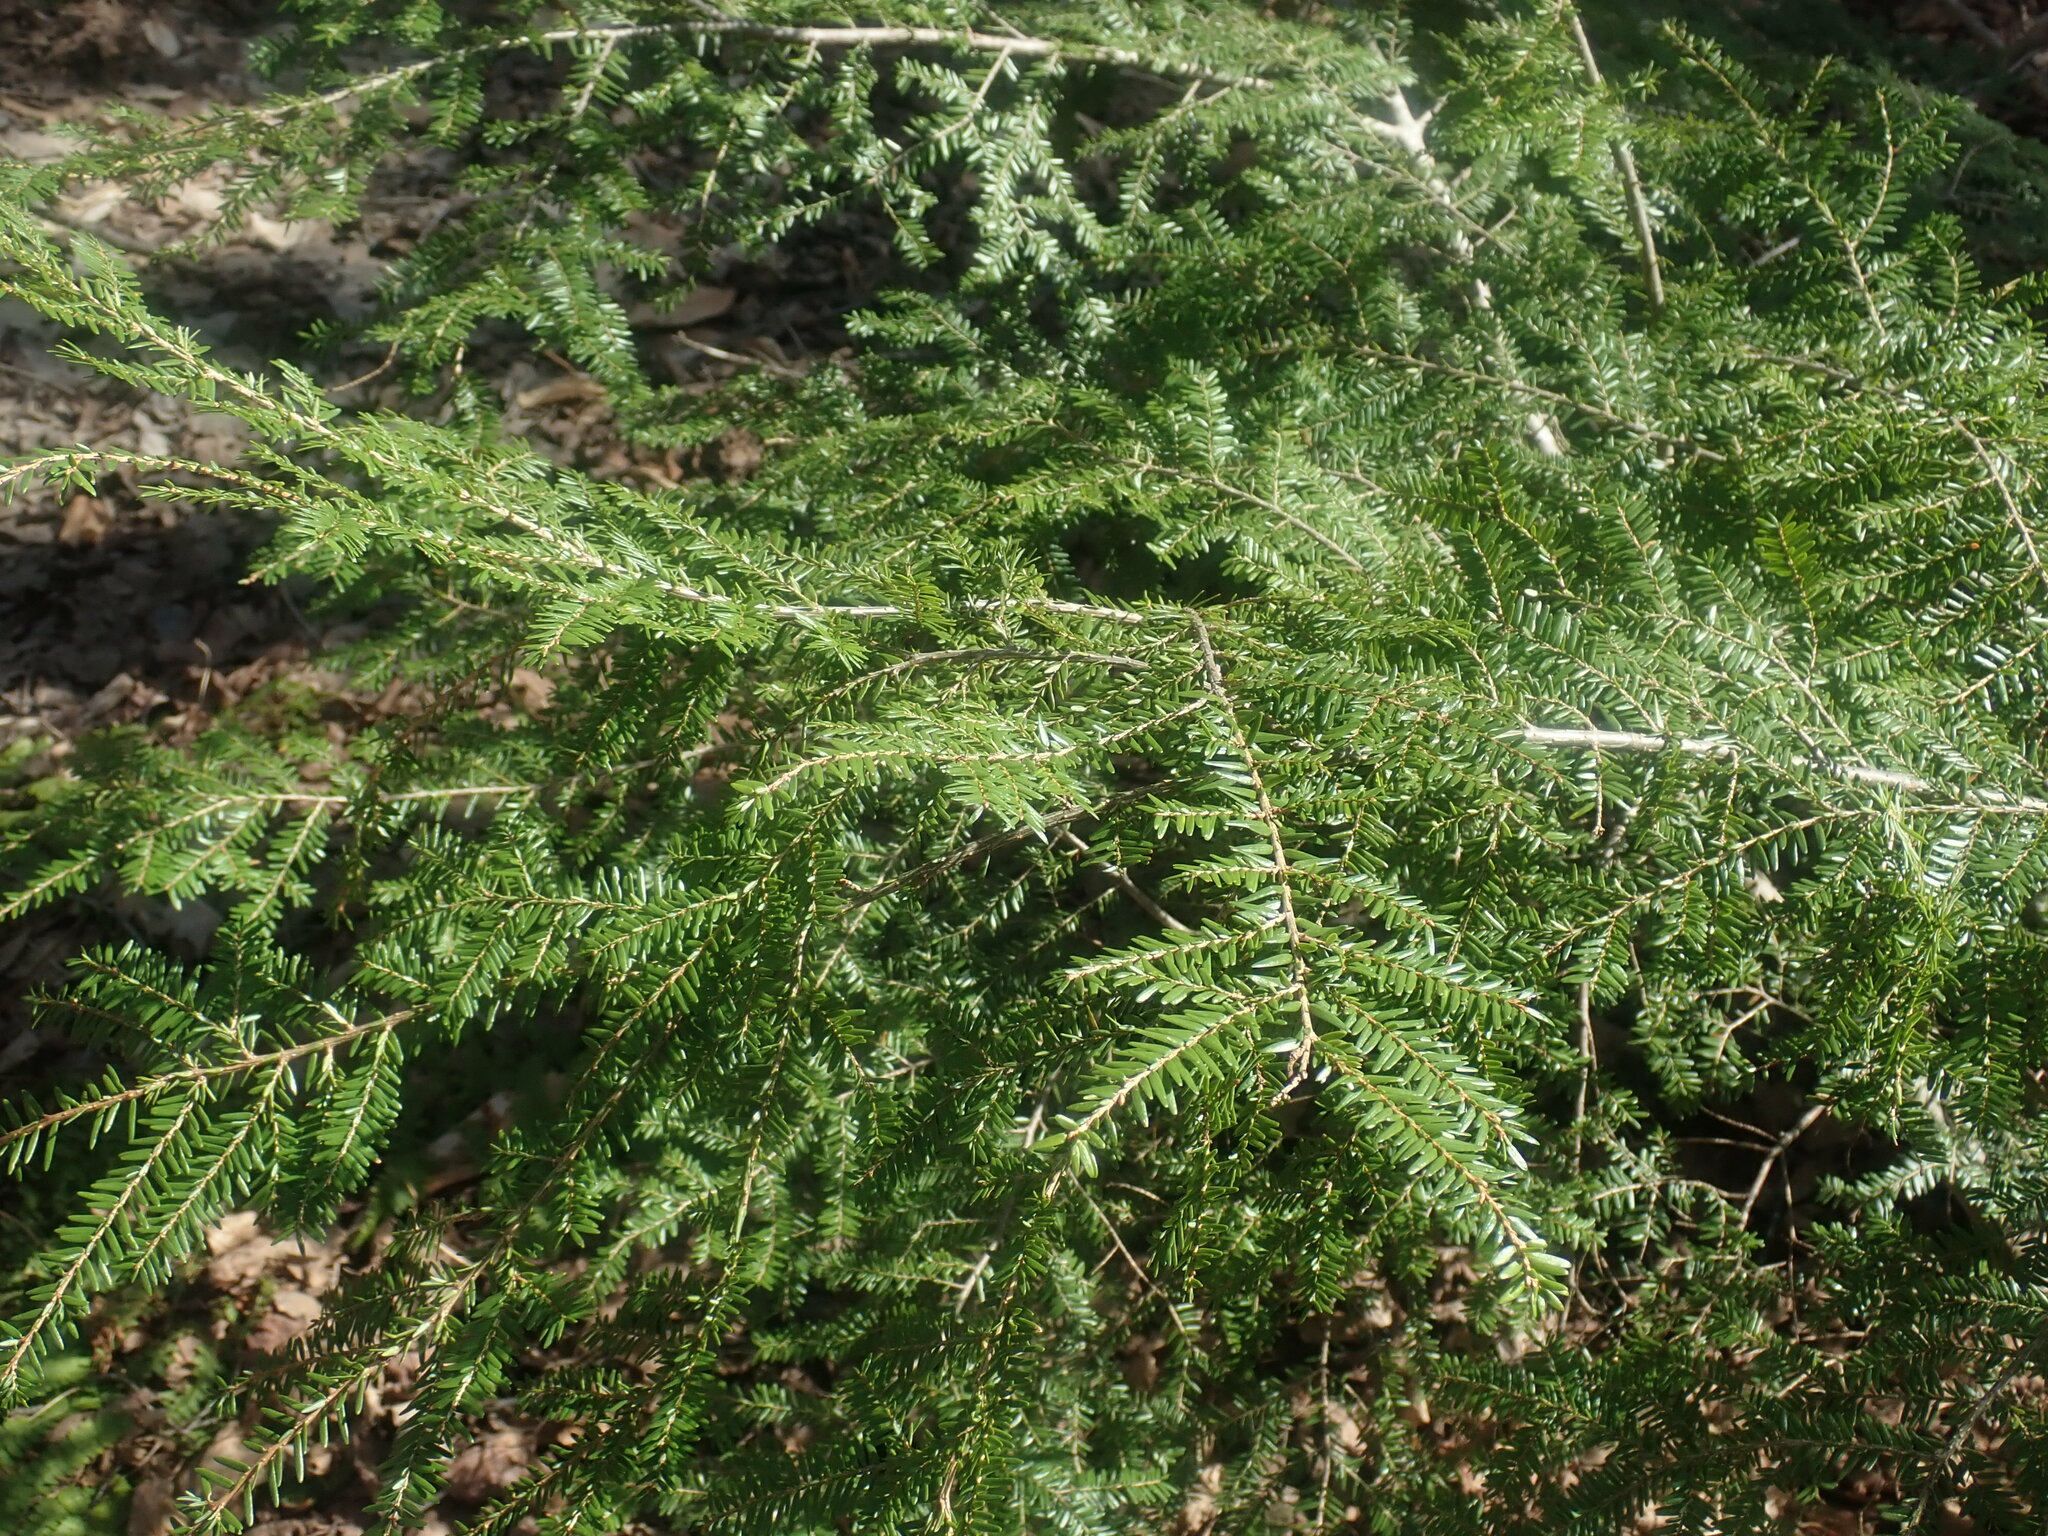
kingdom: Plantae
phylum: Tracheophyta
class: Pinopsida
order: Pinales
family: Pinaceae
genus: Tsuga
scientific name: Tsuga canadensis
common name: Eastern hemlock
